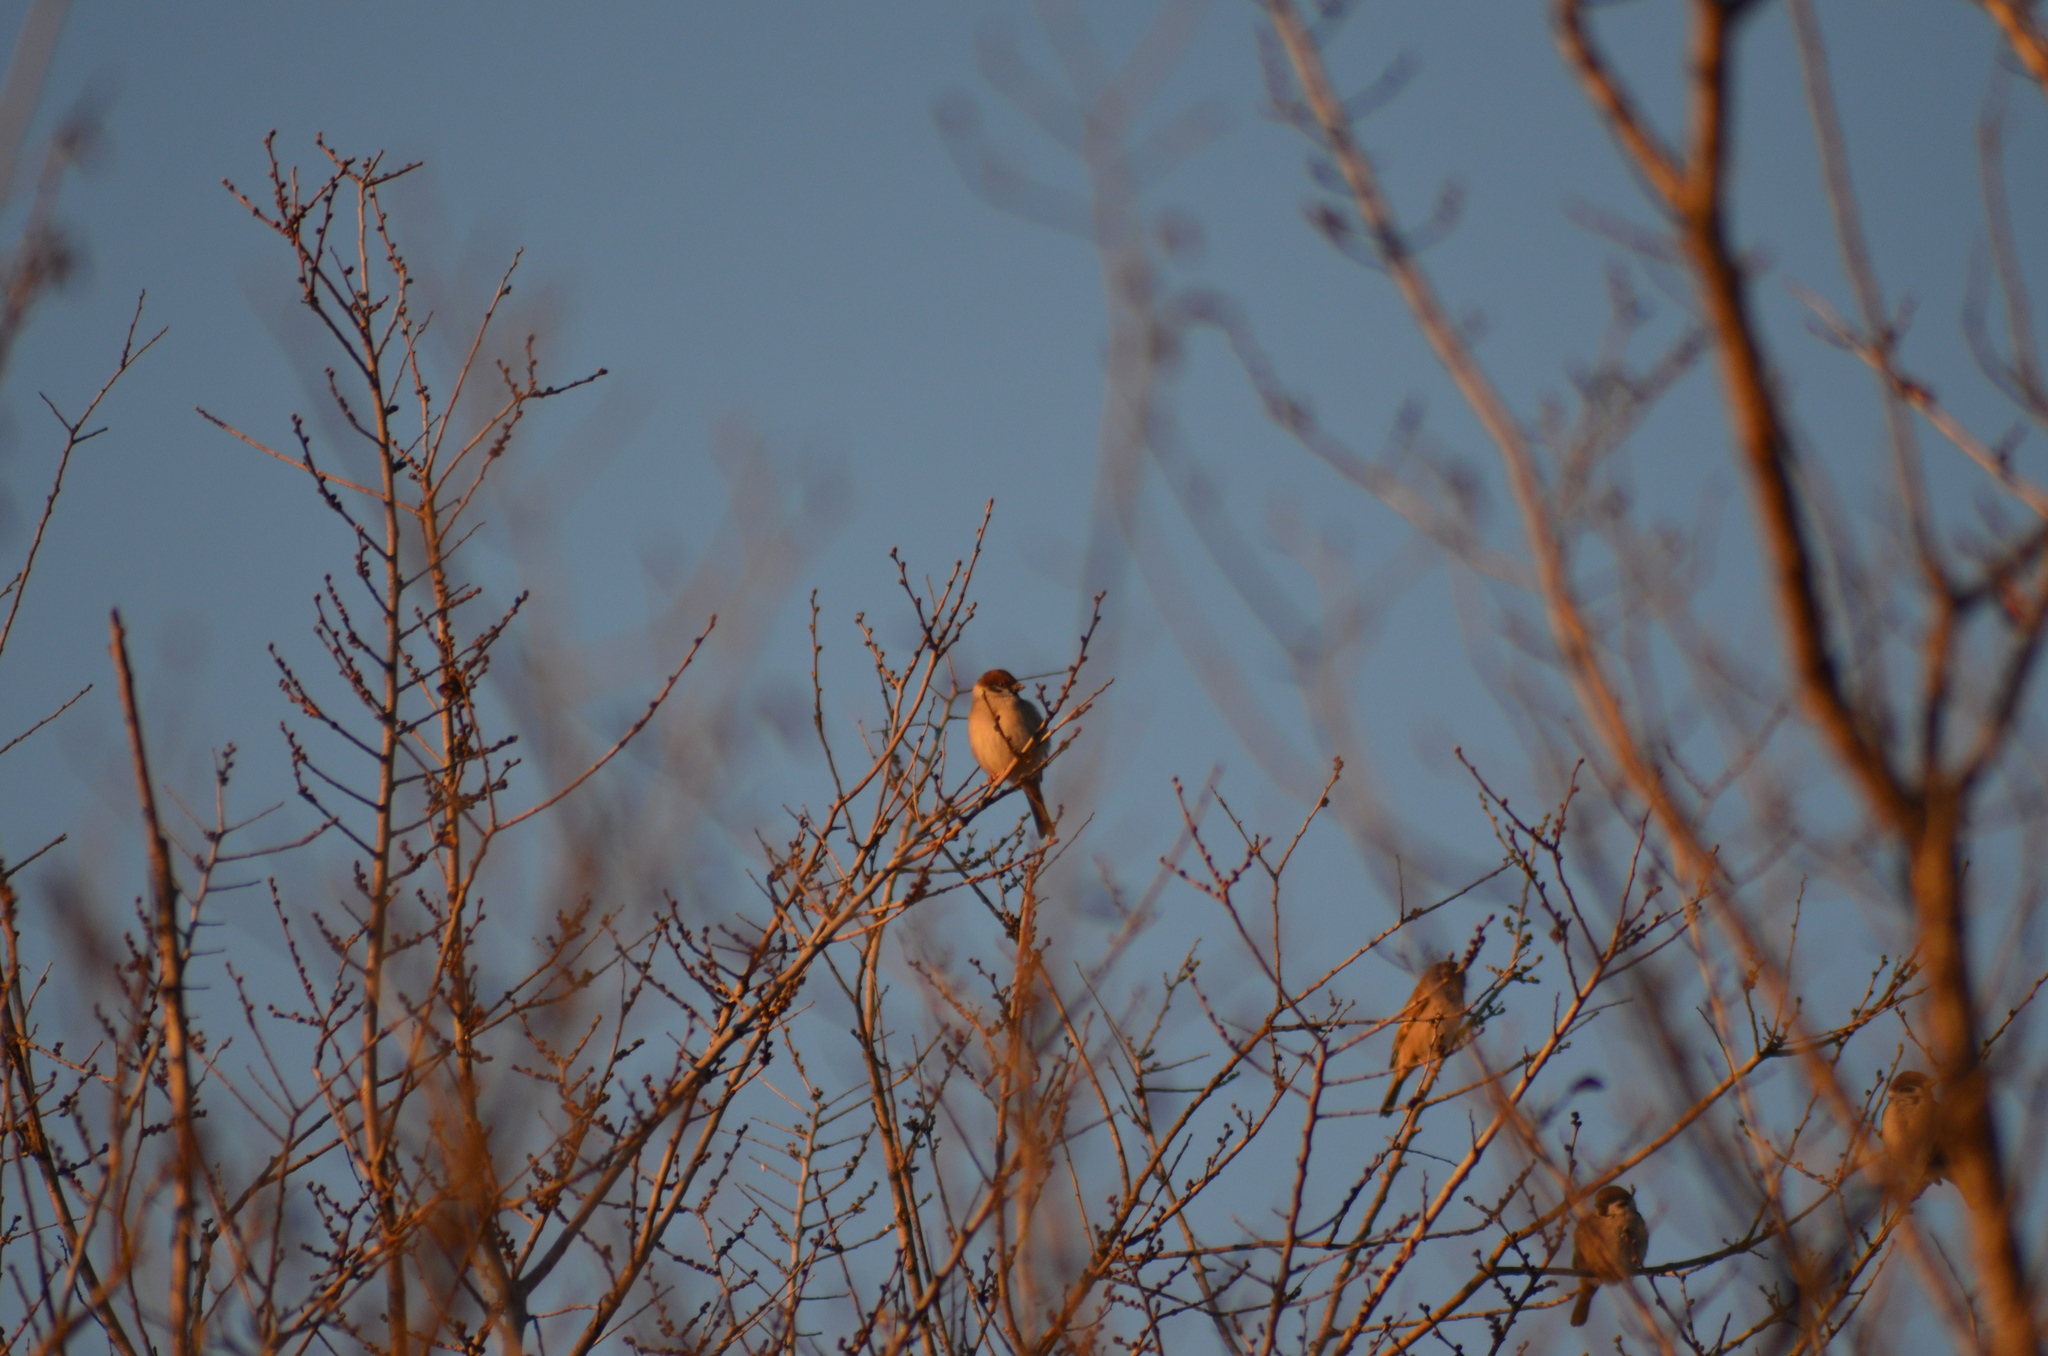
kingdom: Animalia
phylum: Chordata
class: Aves
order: Passeriformes
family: Passeridae
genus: Passer
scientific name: Passer montanus
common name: Eurasian tree sparrow
